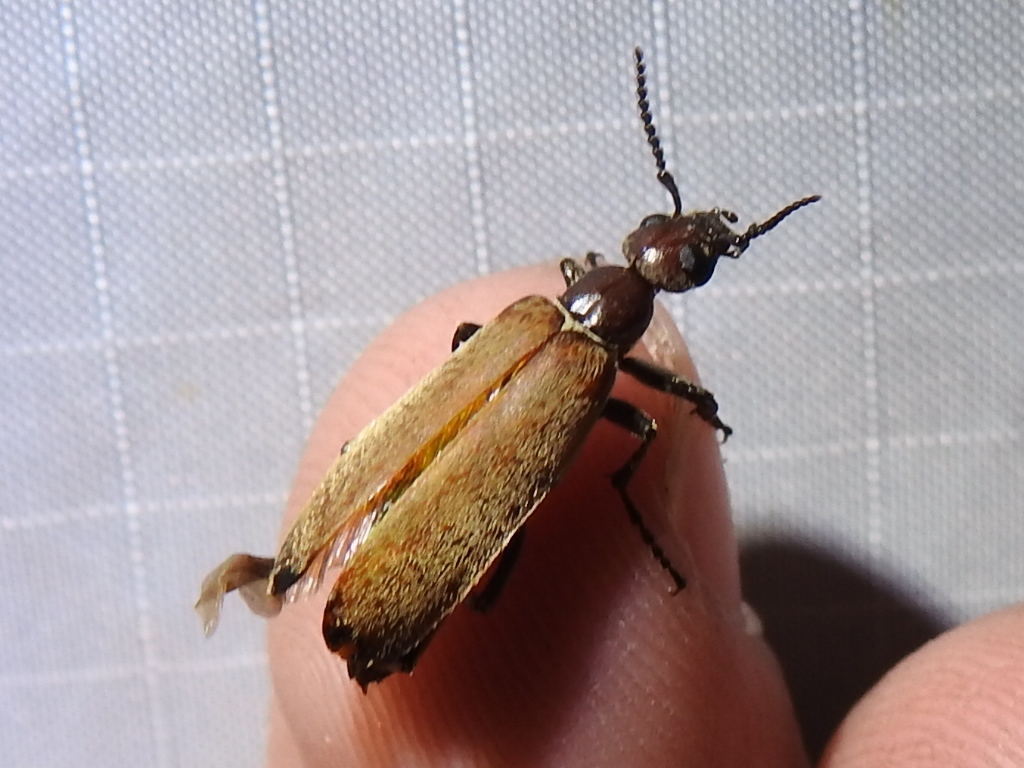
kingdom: Animalia
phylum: Arthropoda
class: Insecta
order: Coleoptera
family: Meloidae
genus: Epicauta
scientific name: Epicauta ochrea
